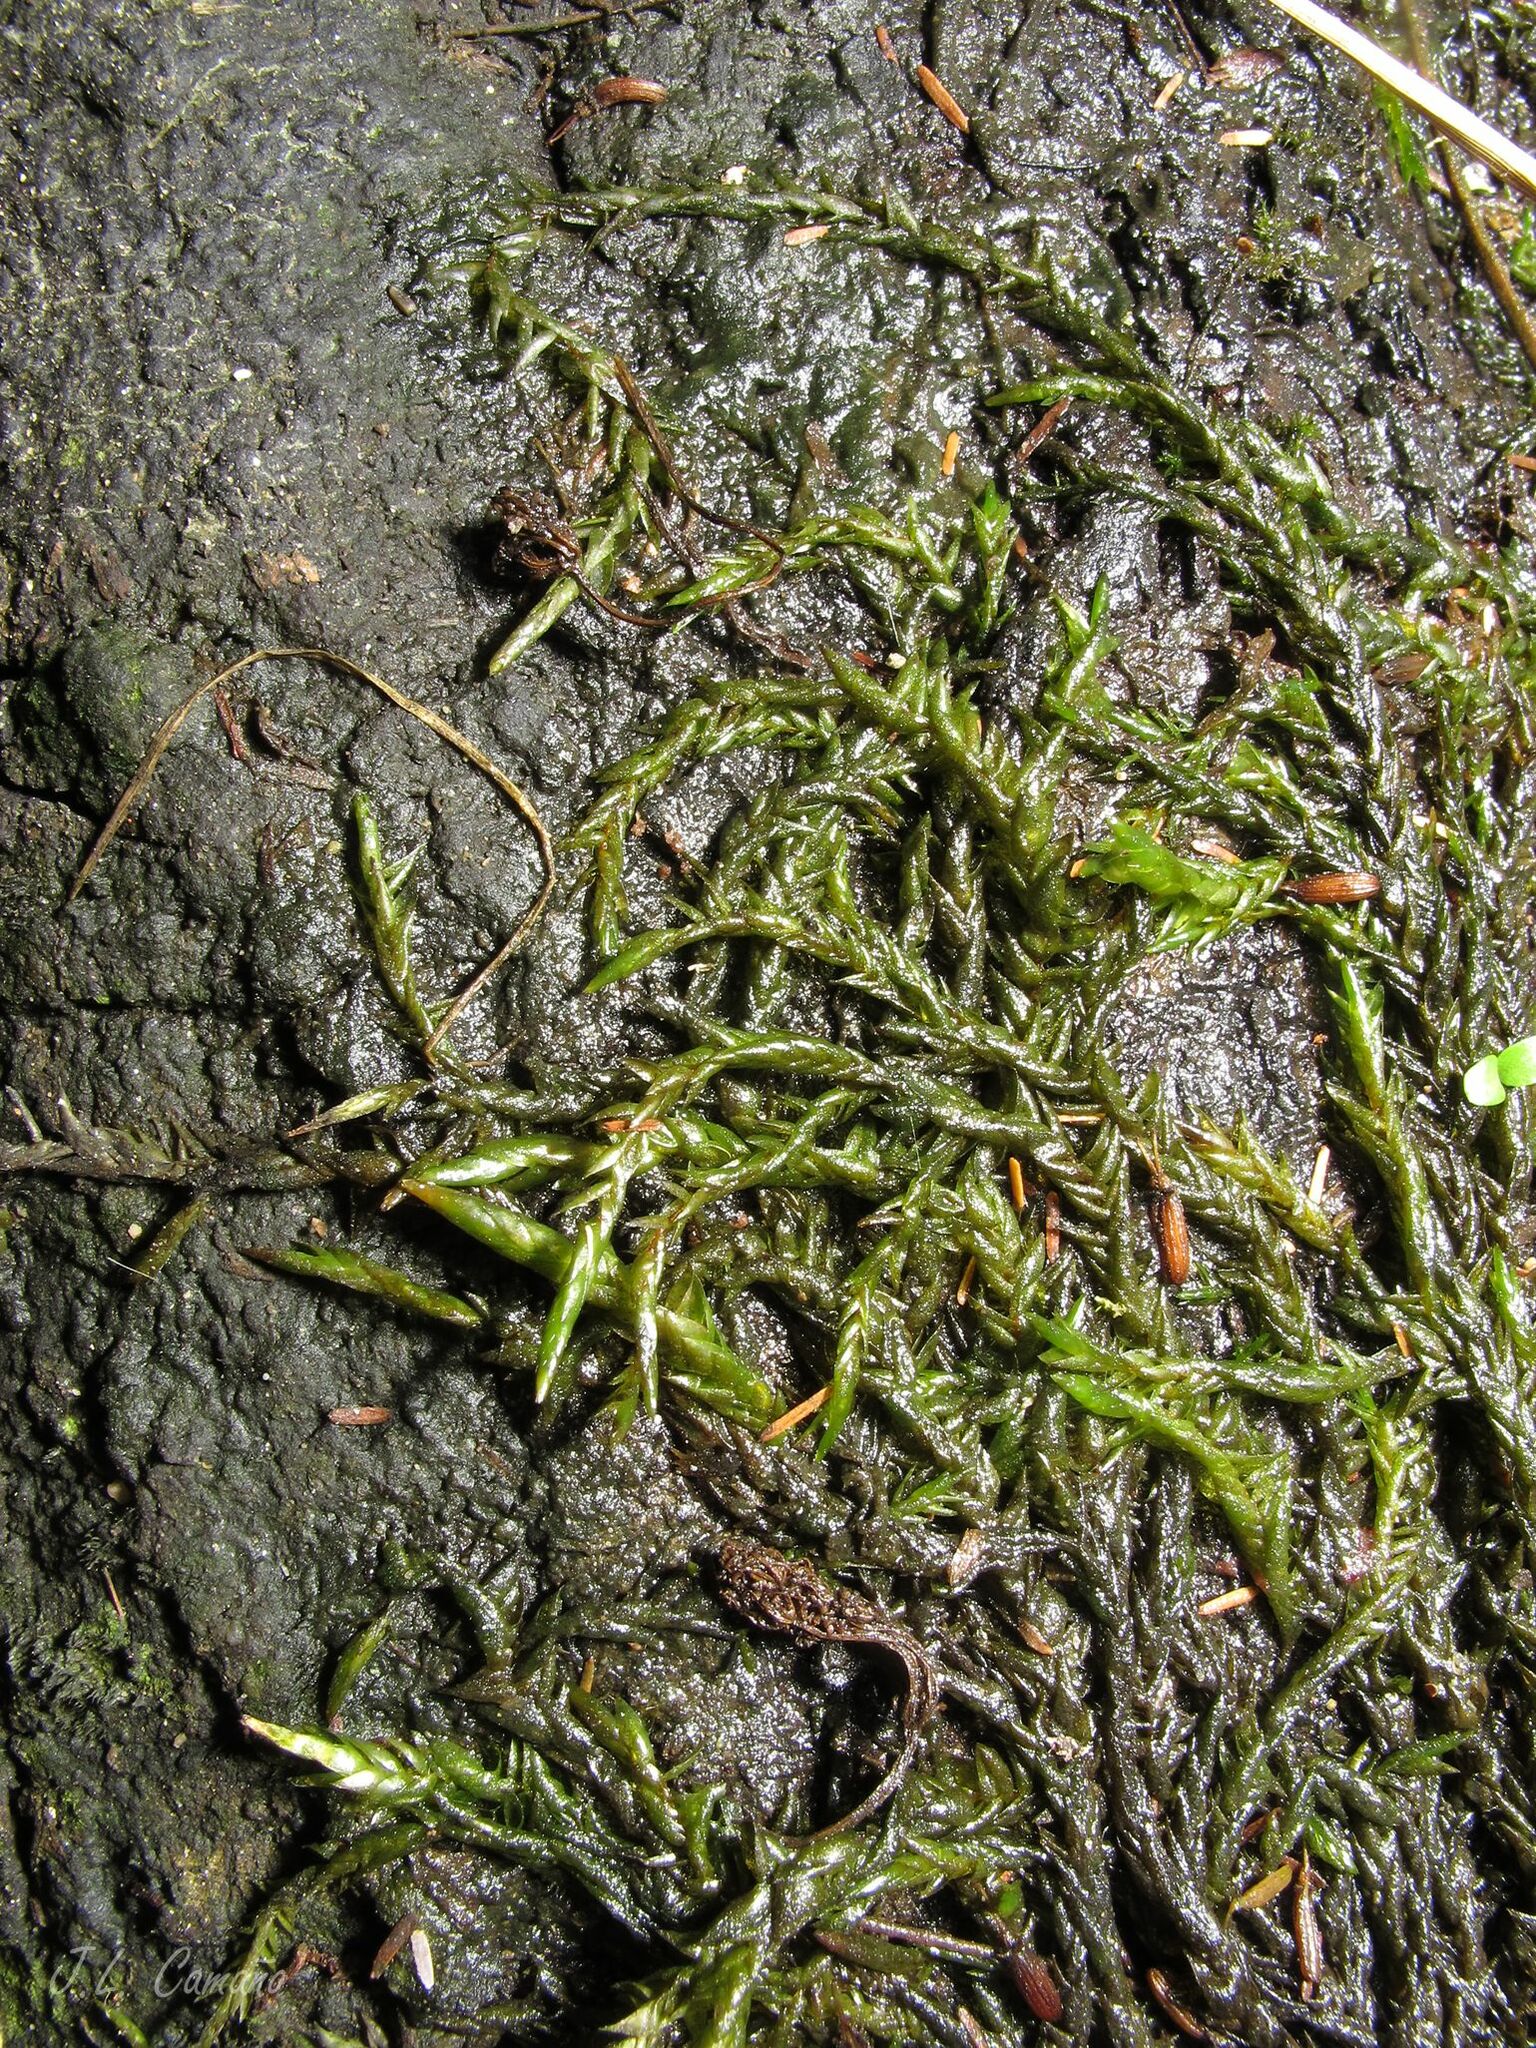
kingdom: Plantae
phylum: Bryophyta
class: Bryopsida
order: Hypnales
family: Fontinalaceae
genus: Fontinalis
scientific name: Fontinalis hypnoides
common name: River moss
